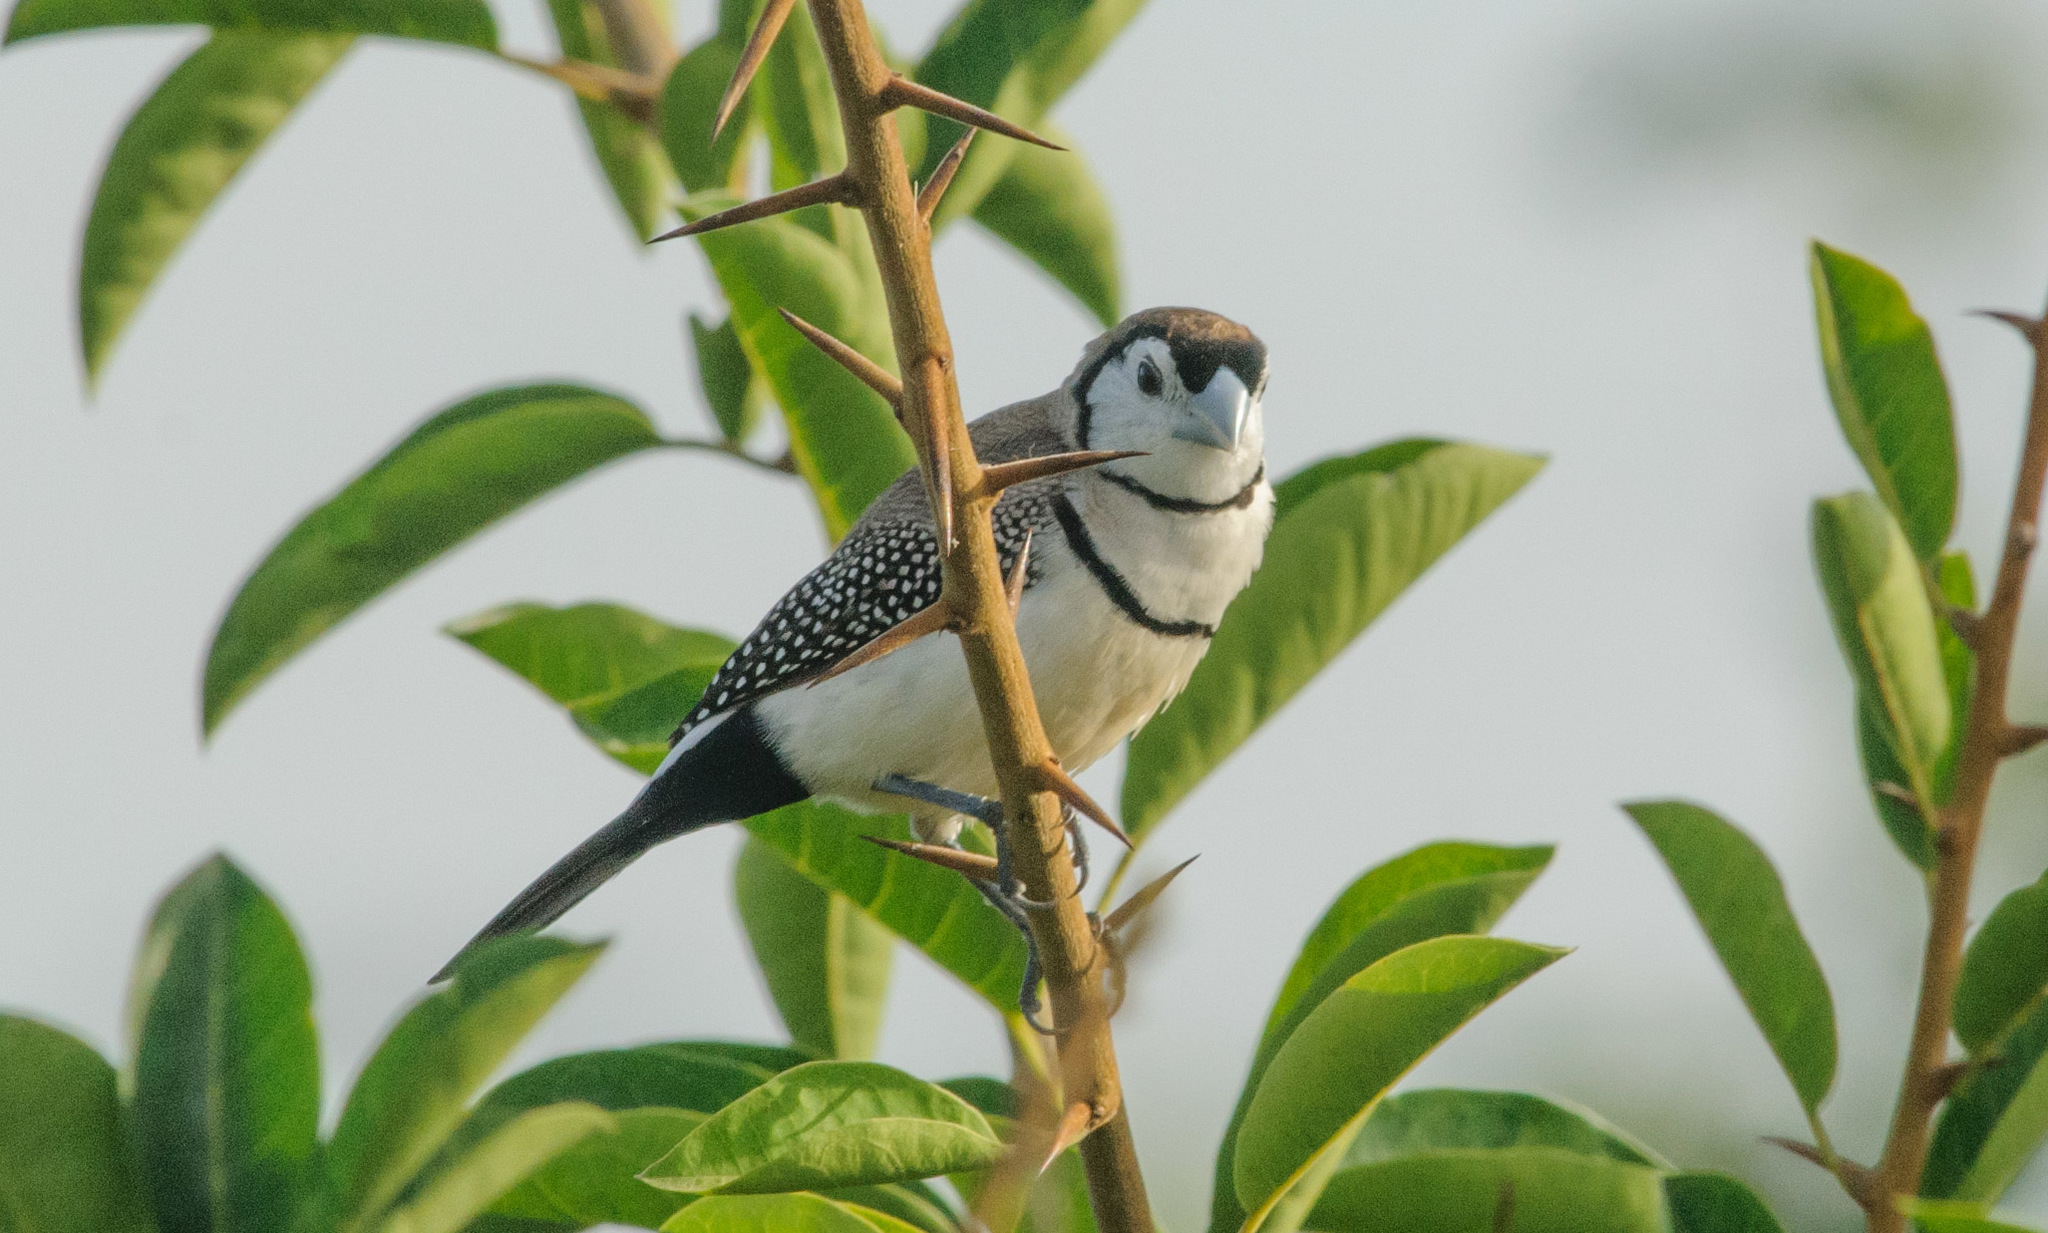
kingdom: Animalia
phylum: Chordata
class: Aves
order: Passeriformes
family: Estrildidae
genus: Taeniopygia
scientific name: Taeniopygia bichenovii
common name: Double-barred finch
